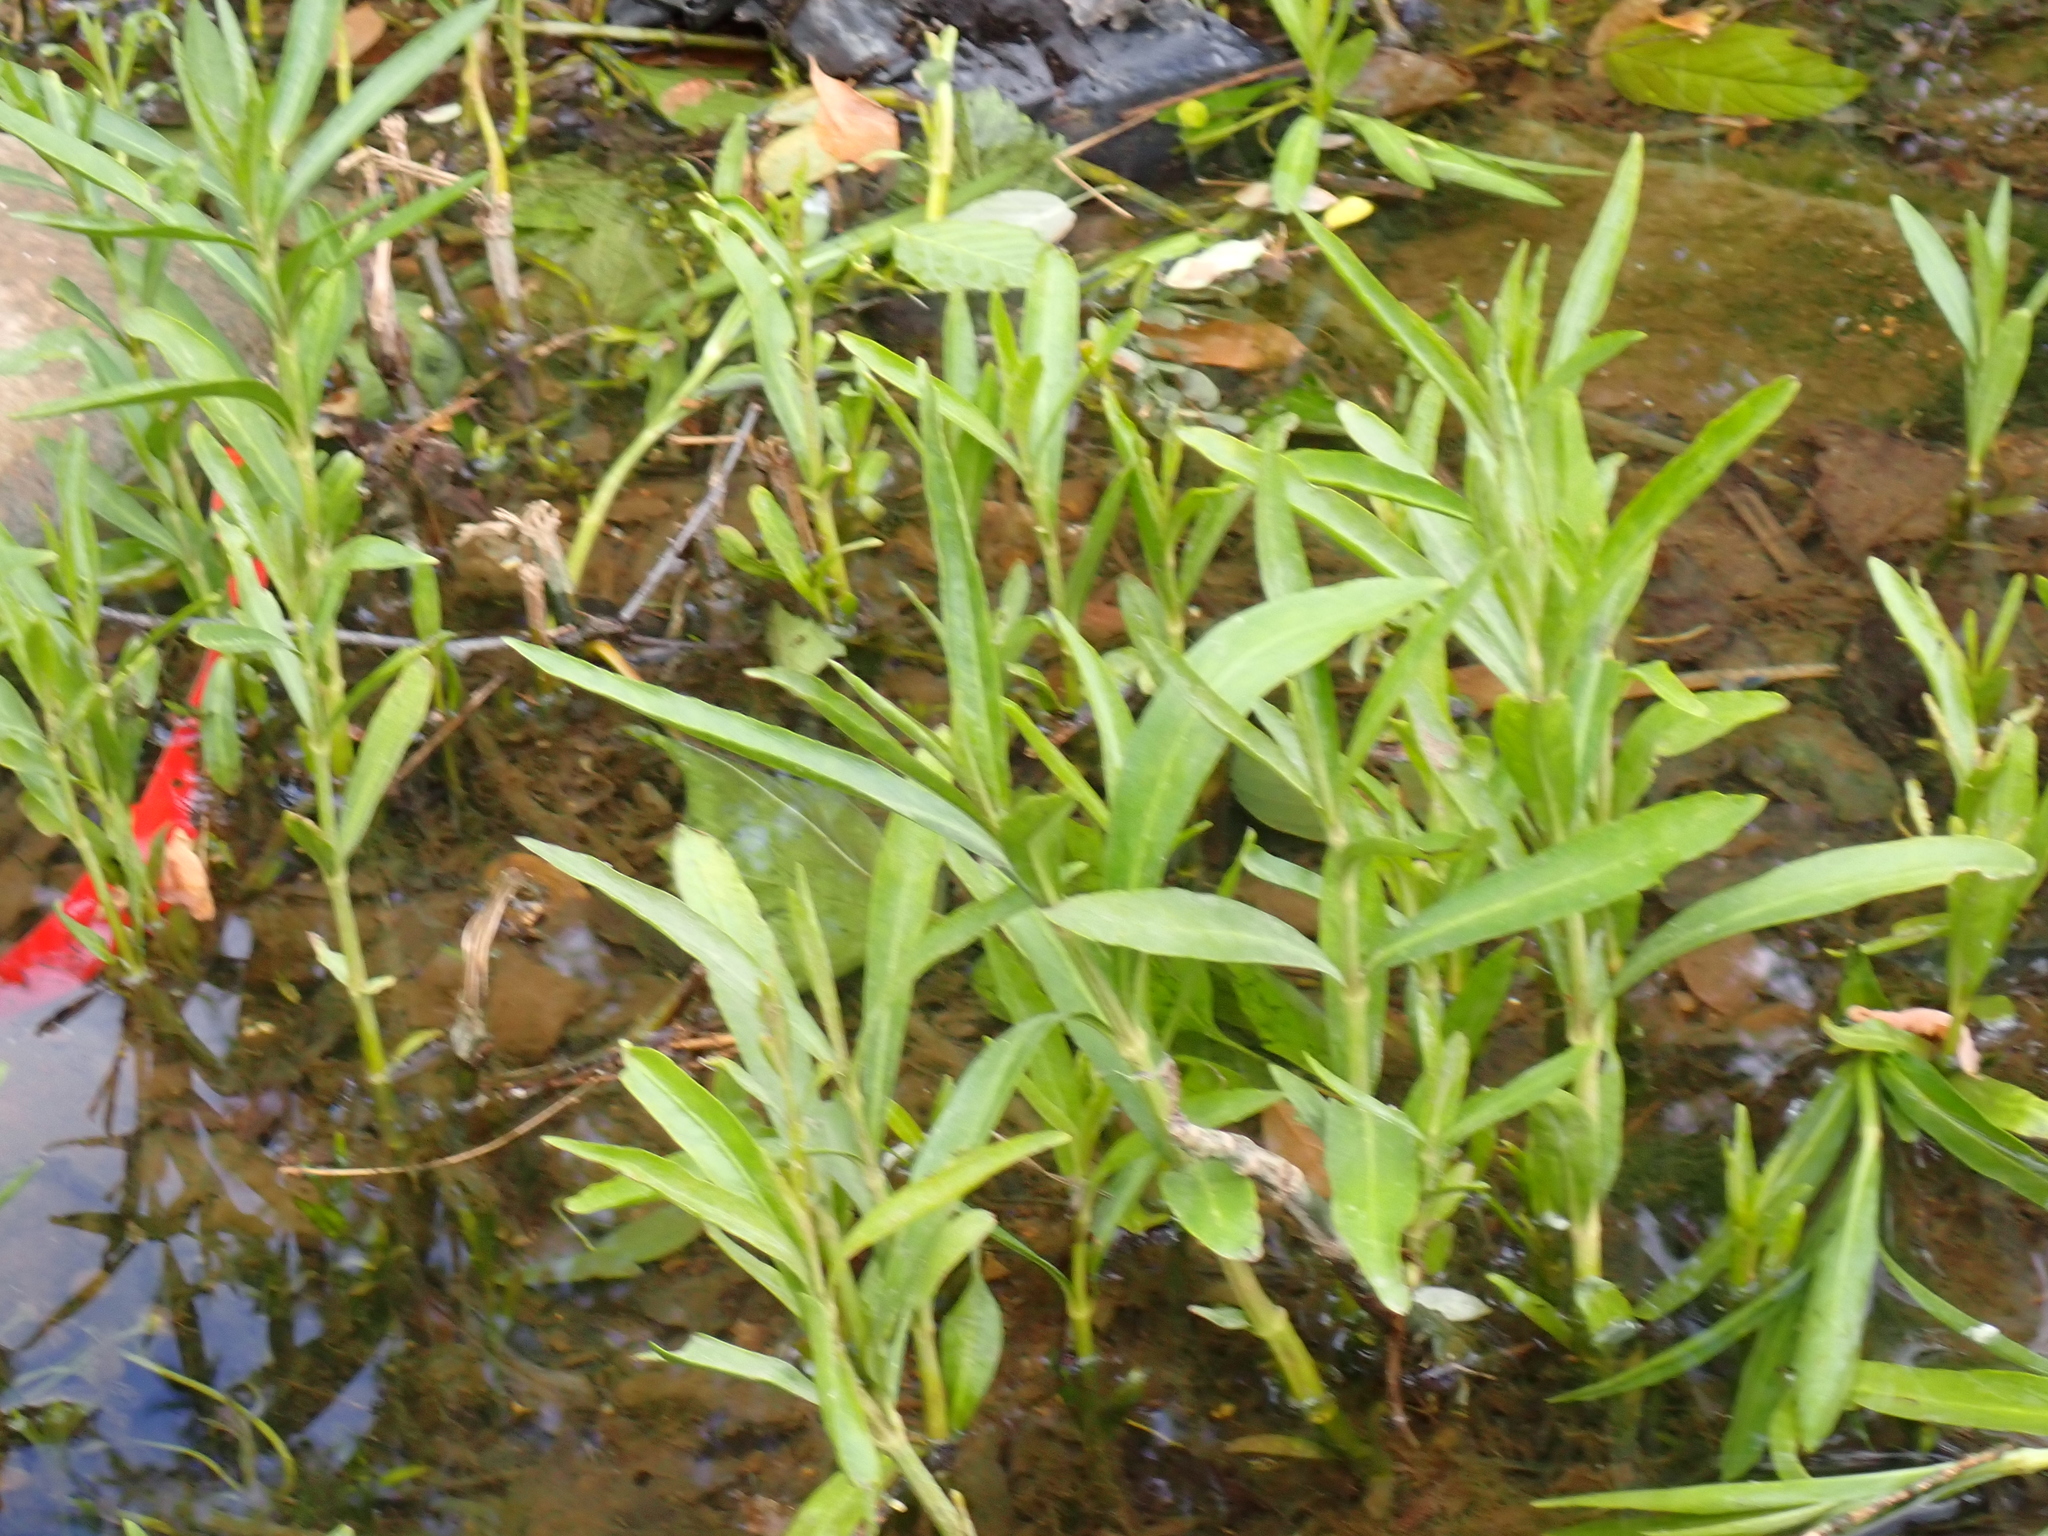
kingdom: Plantae
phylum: Tracheophyta
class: Magnoliopsida
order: Lamiales
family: Acanthaceae
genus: Dianthera
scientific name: Dianthera americana
